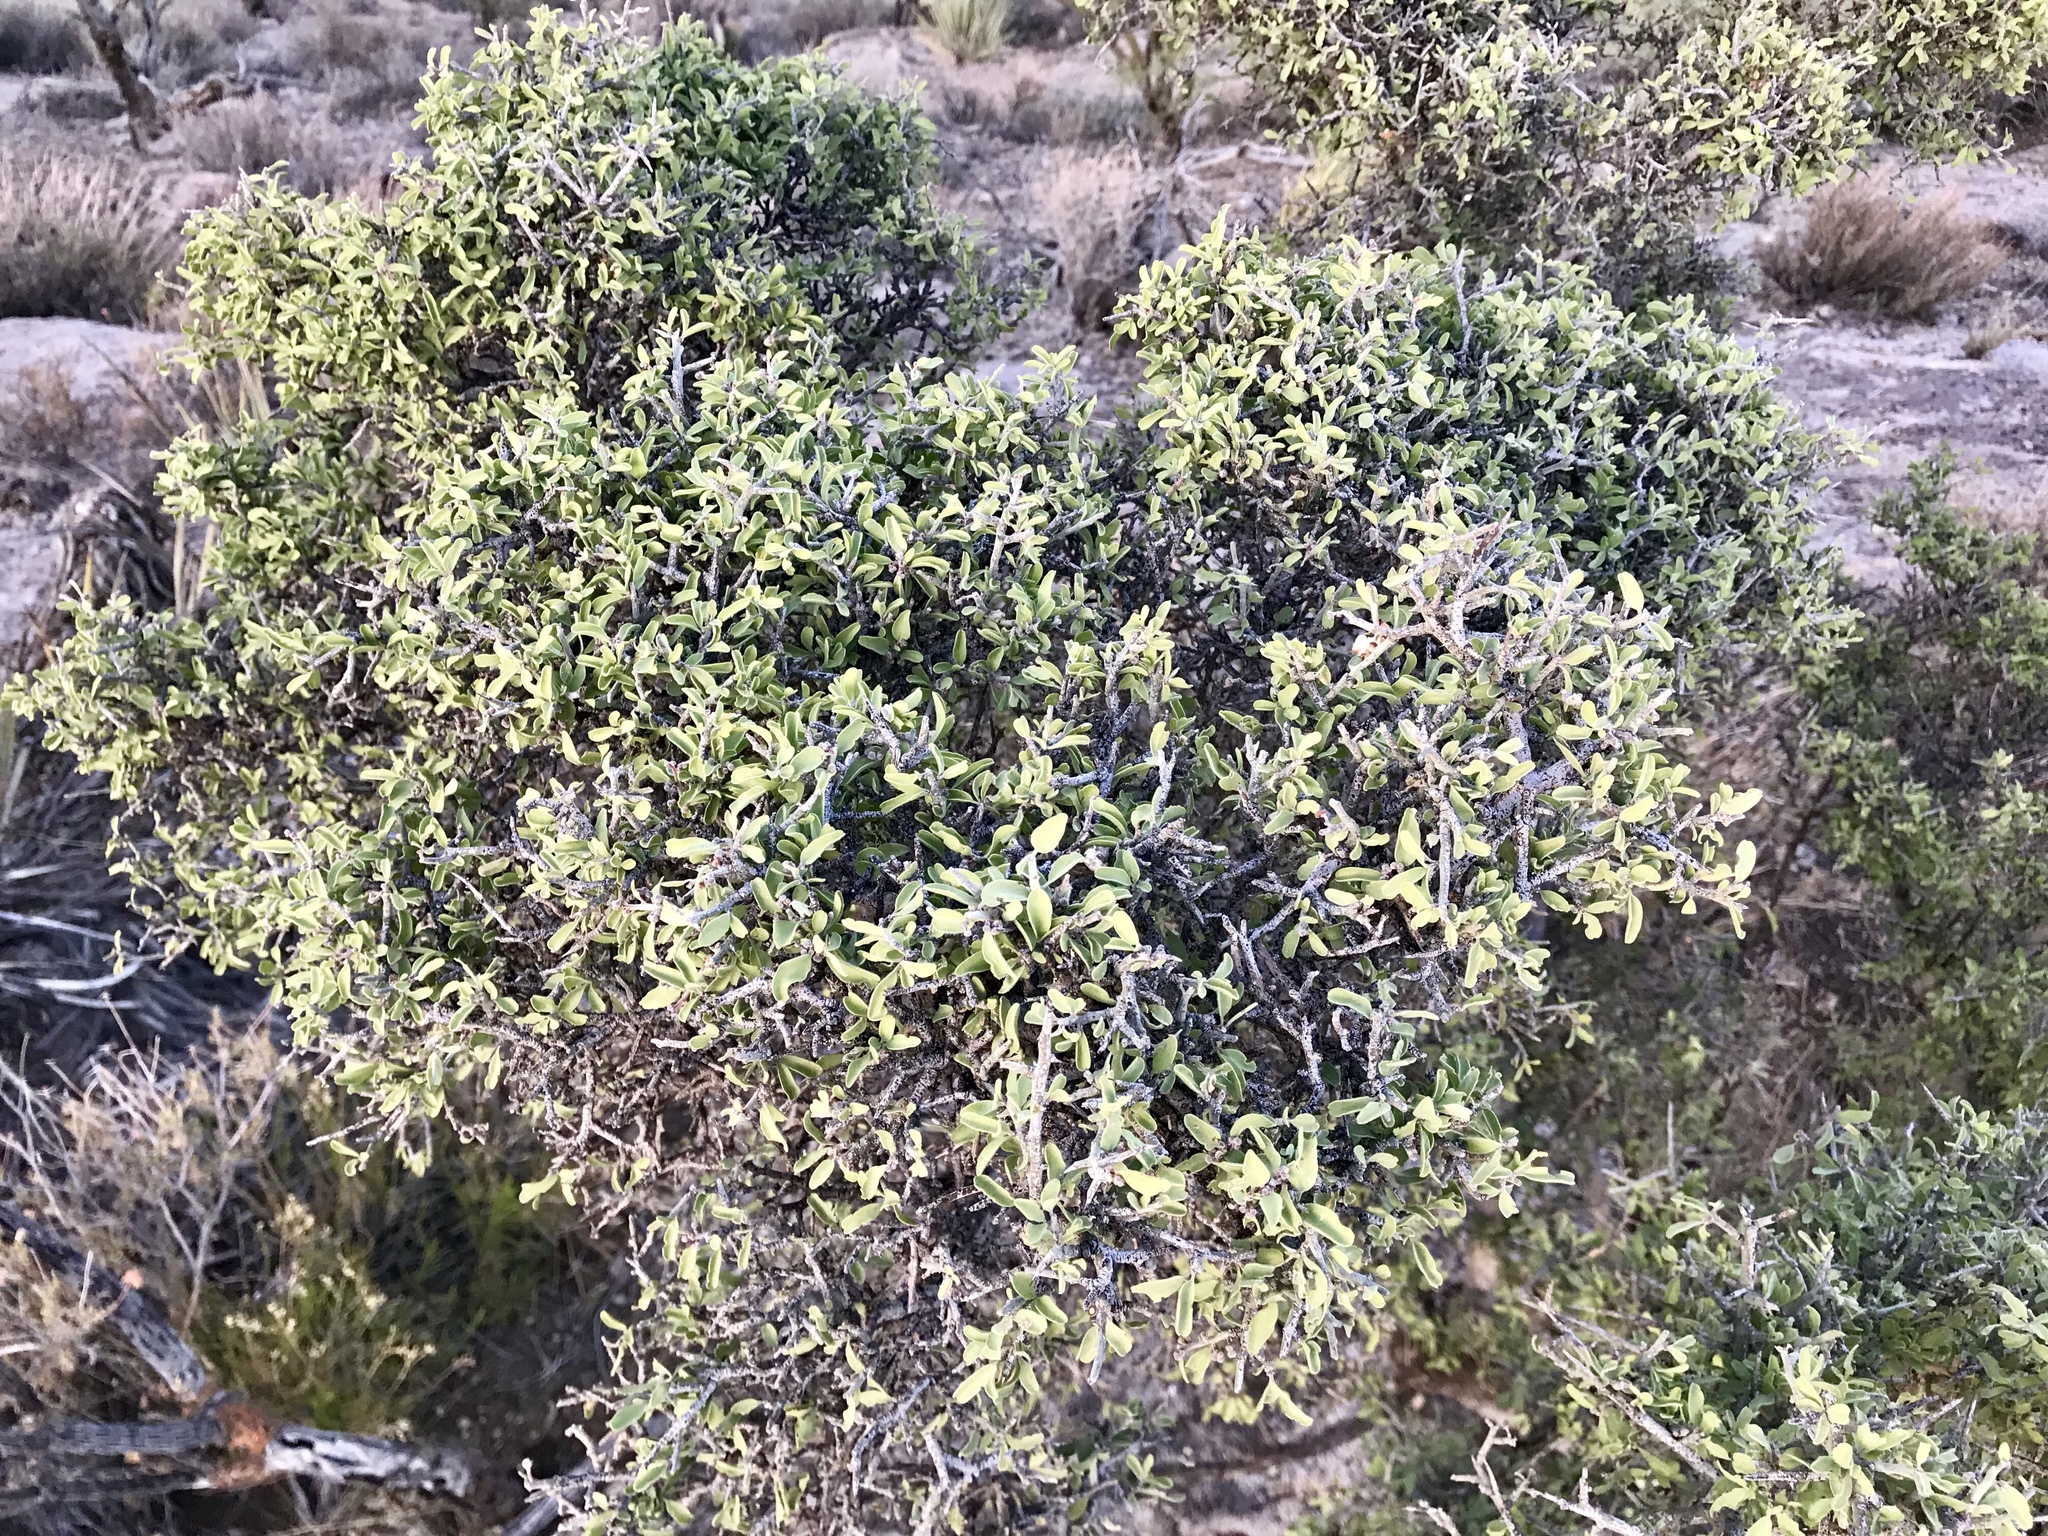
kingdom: Plantae
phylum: Tracheophyta
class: Magnoliopsida
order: Rosales
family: Rhamnaceae
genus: Sarcomphalus
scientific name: Sarcomphalus obtusifolius
